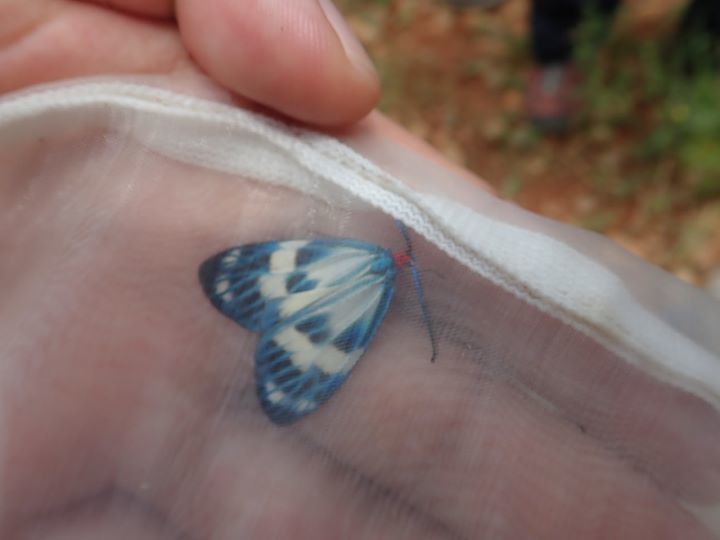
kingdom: Animalia
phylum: Arthropoda
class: Insecta
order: Lepidoptera
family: Zygaenidae
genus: Chalcosia
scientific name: Chalcosia pectinicornis
